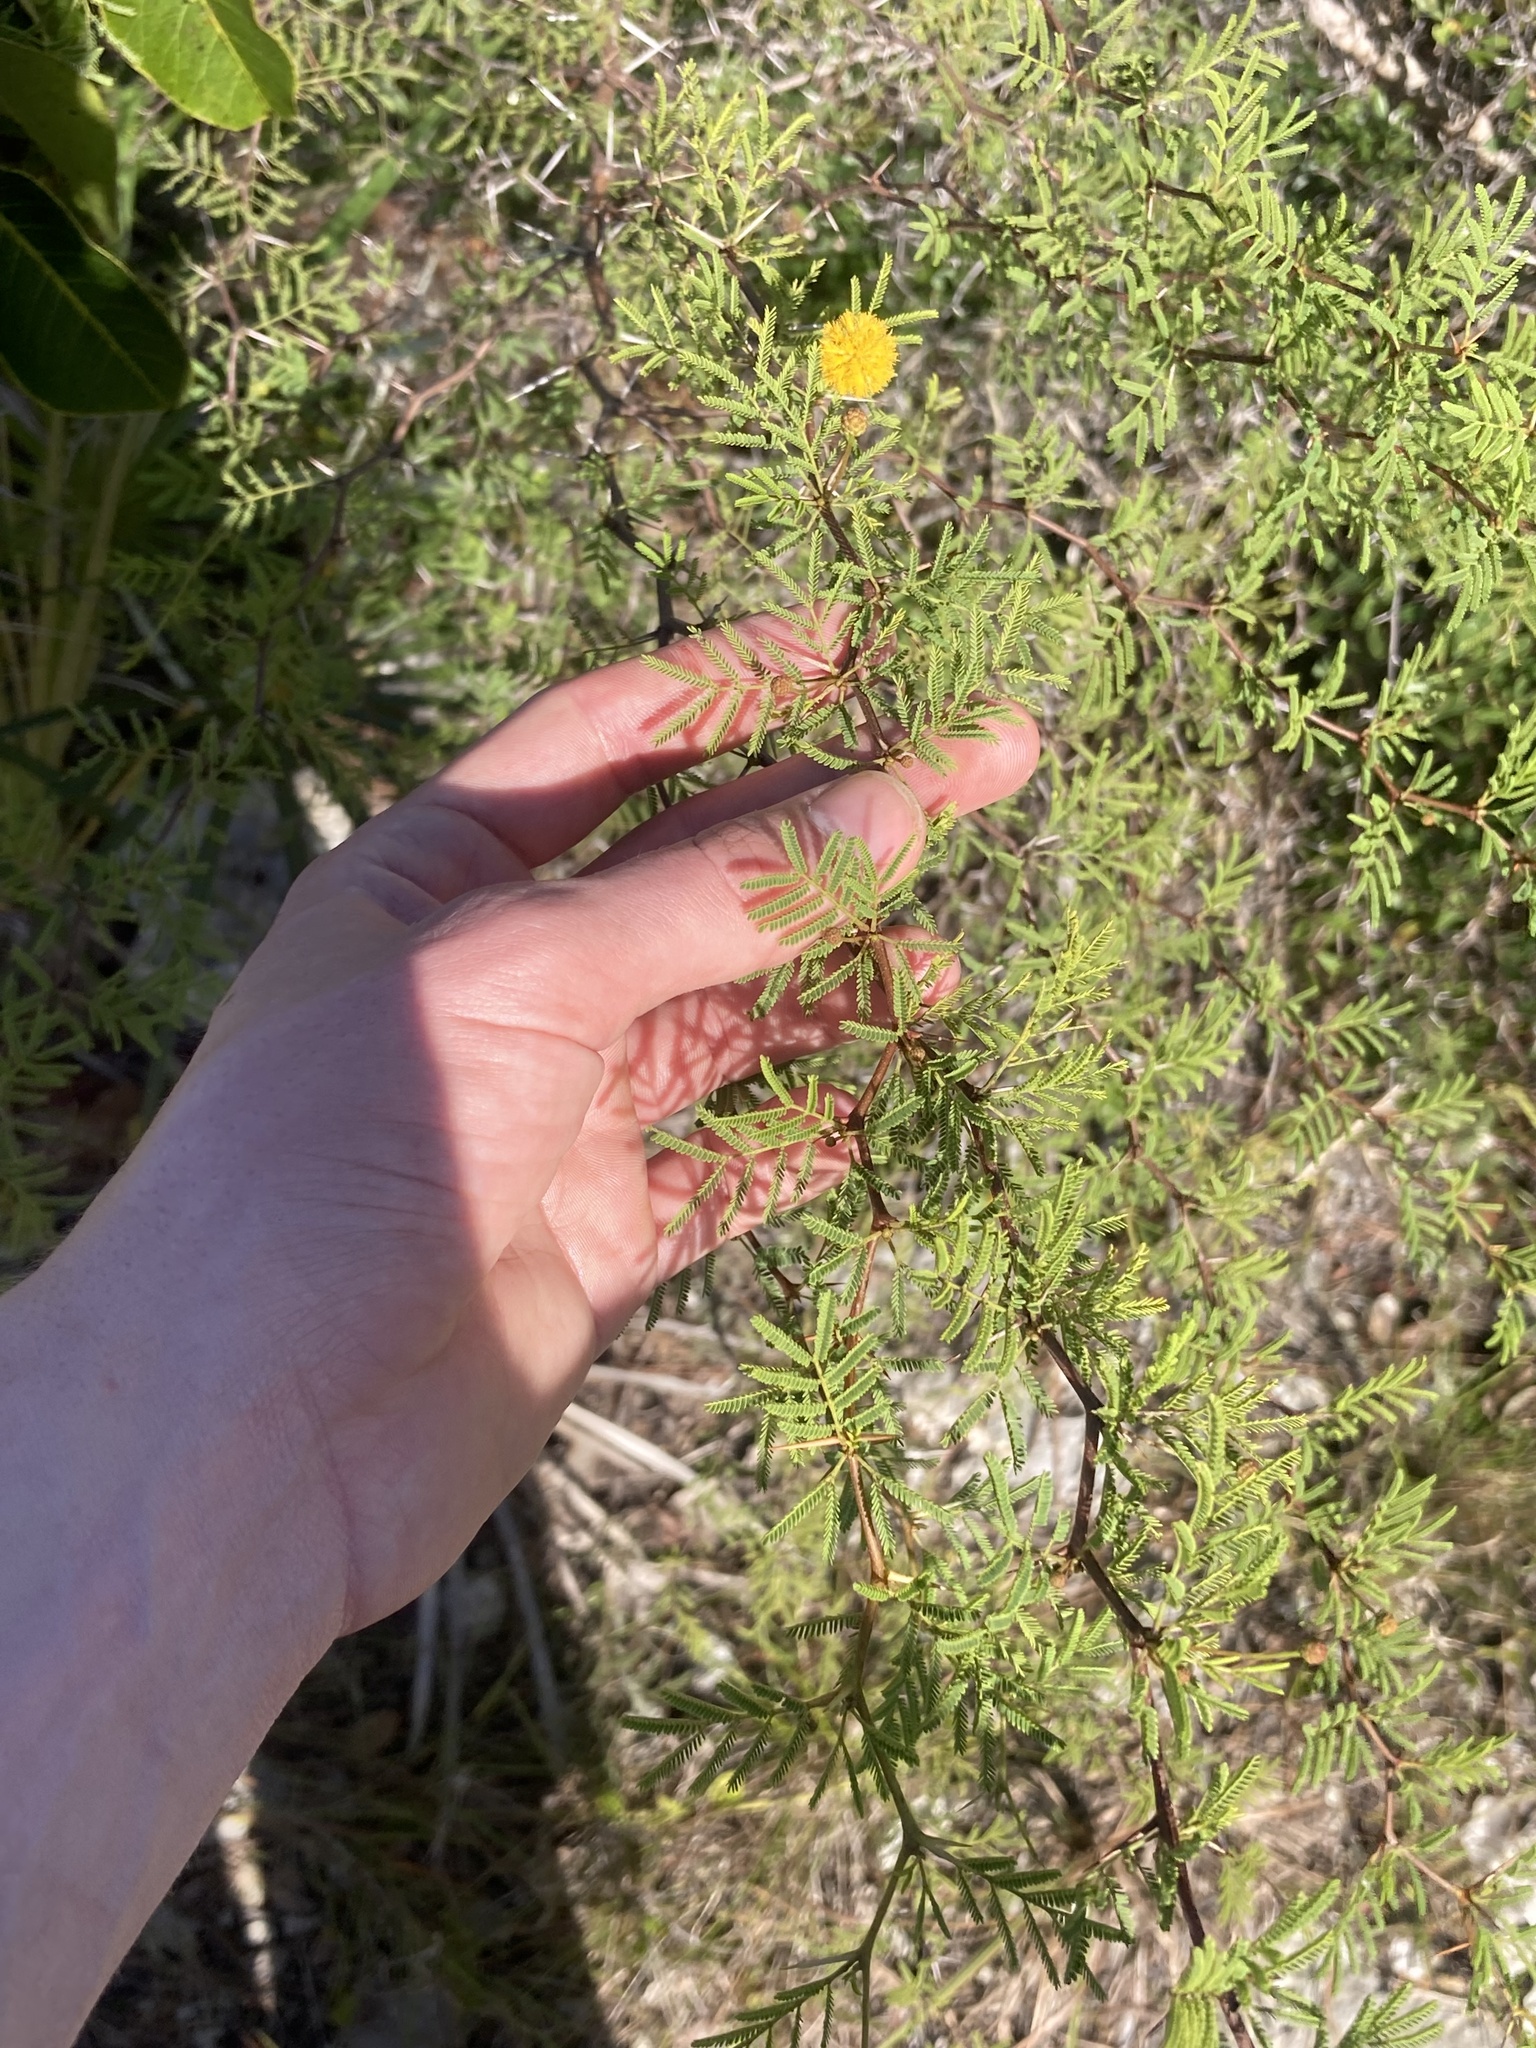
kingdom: Plantae
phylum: Tracheophyta
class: Magnoliopsida
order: Fabales
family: Fabaceae
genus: Vachellia
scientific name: Vachellia farnesiana
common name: Sweet acacia
